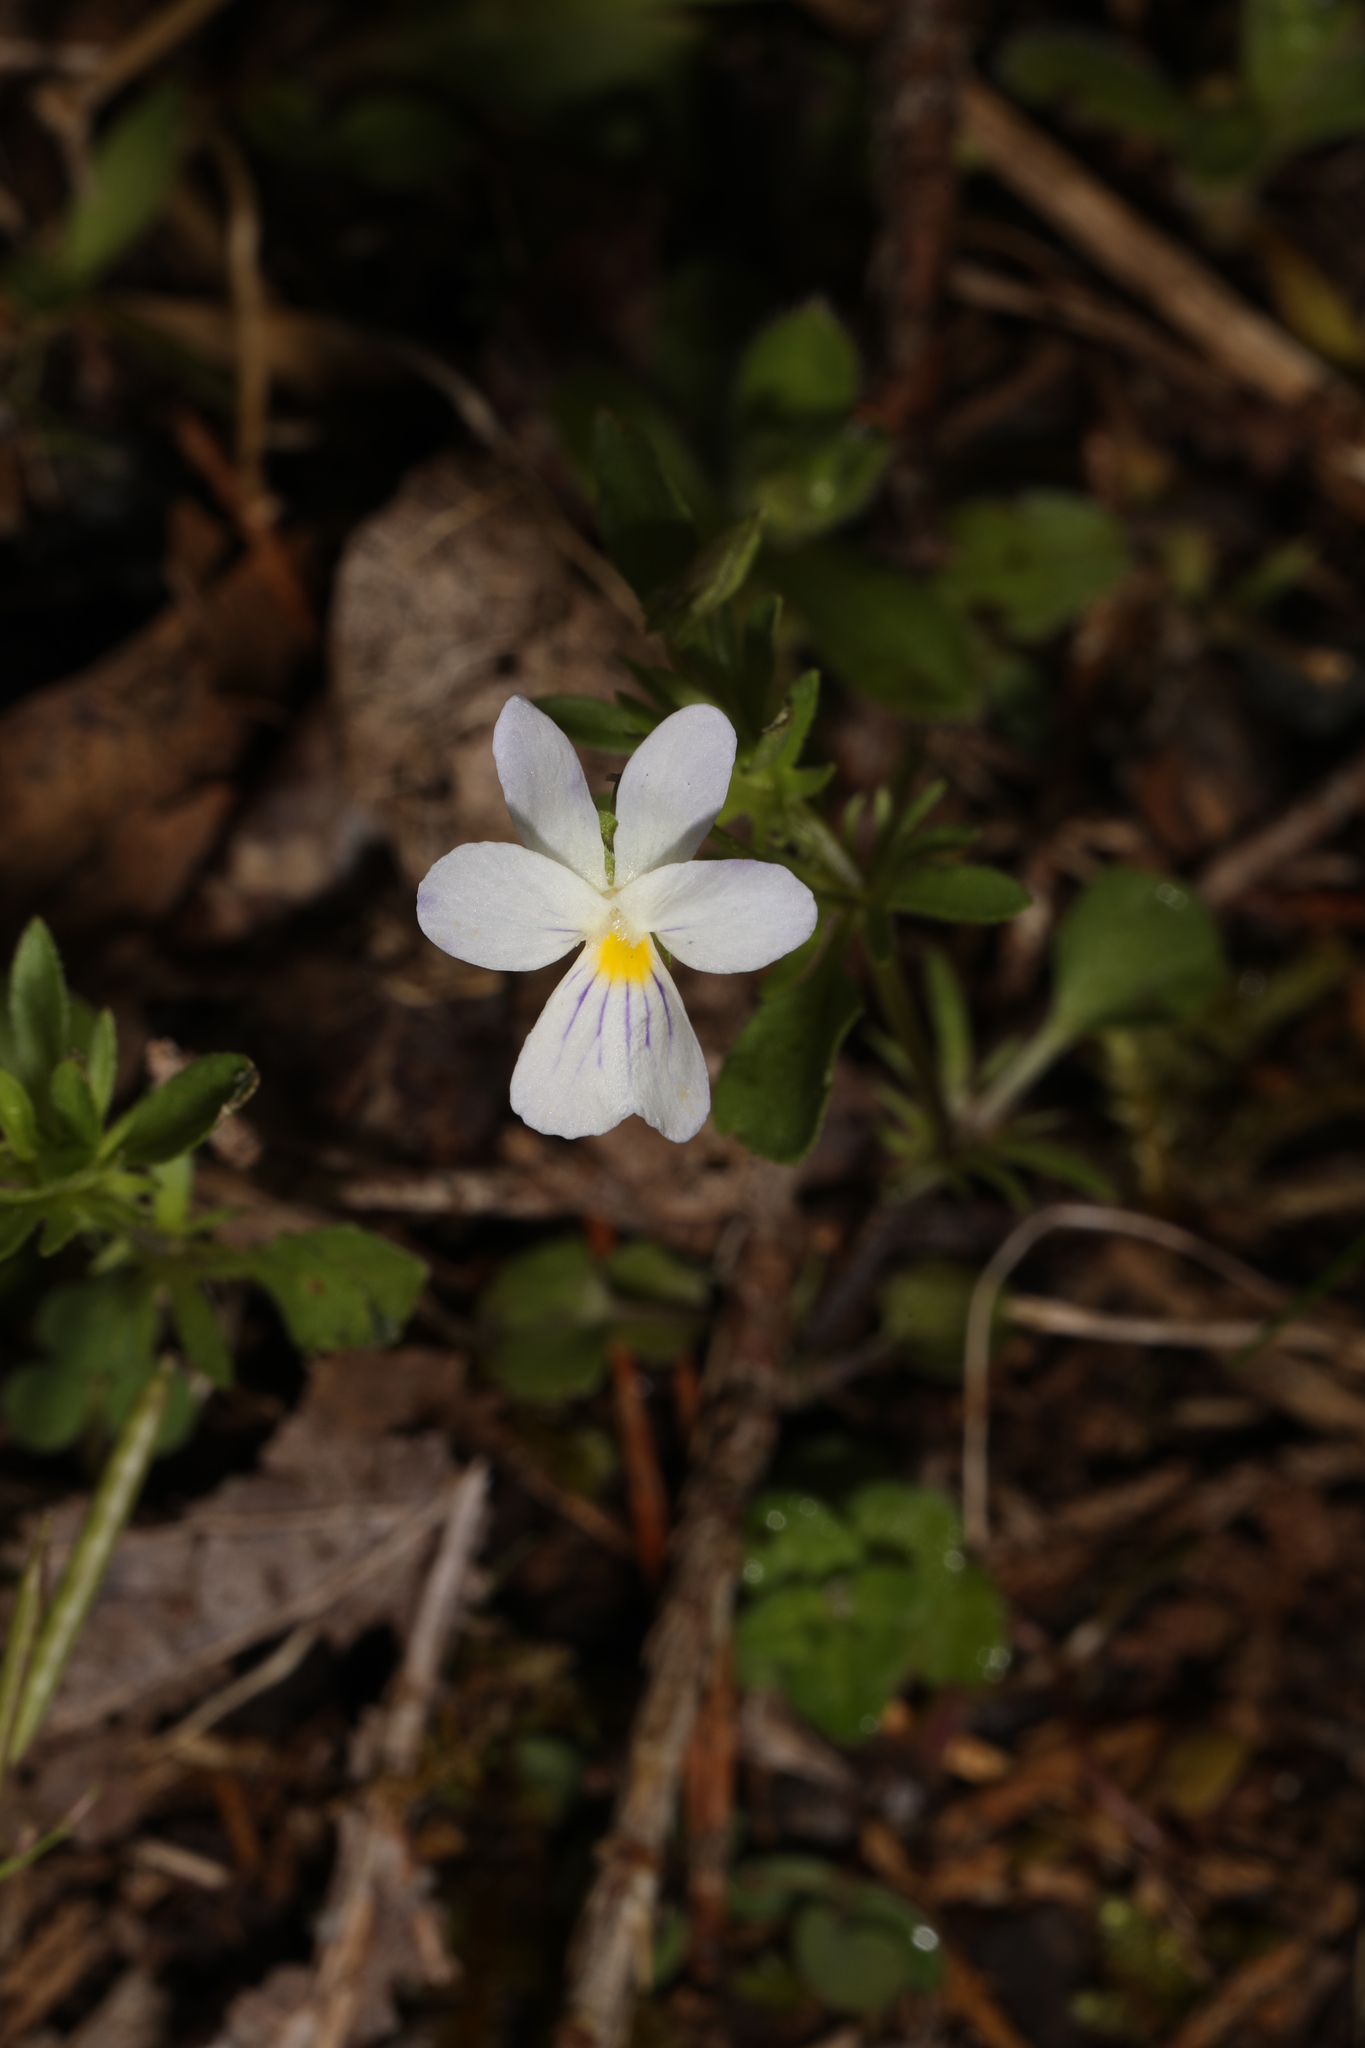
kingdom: Plantae
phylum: Tracheophyta
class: Magnoliopsida
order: Malpighiales
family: Violaceae
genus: Viola
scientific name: Viola rafinesquei
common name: American field pansy
